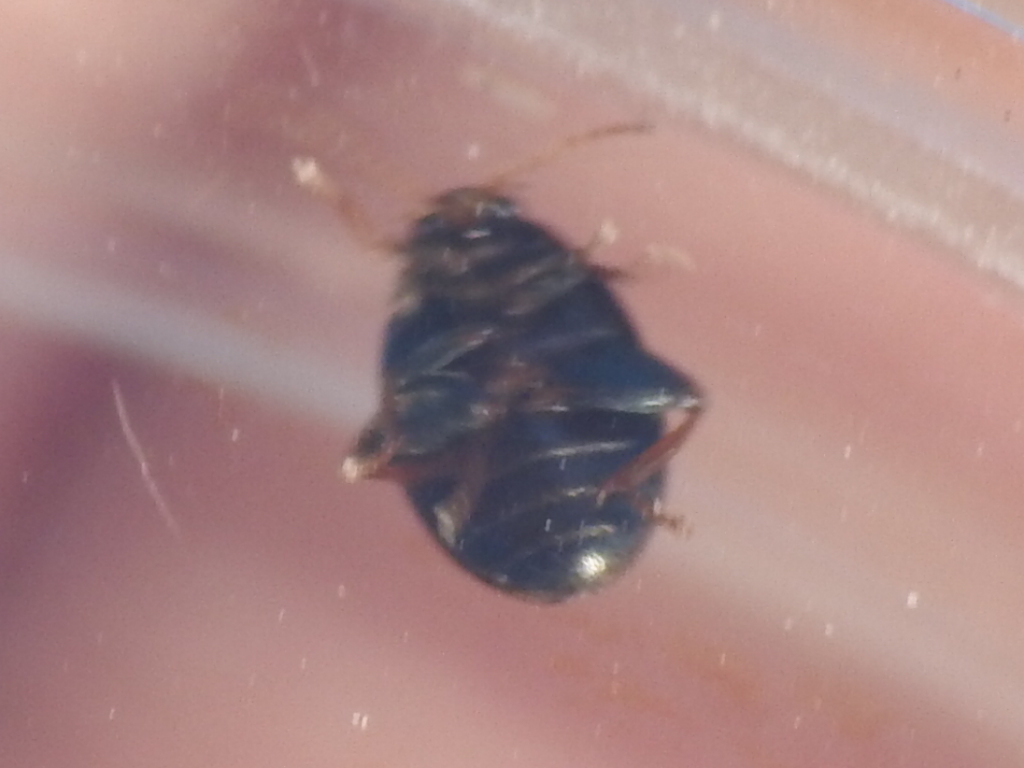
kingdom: Animalia
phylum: Arthropoda
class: Insecta
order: Coleoptera
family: Scirtidae
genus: Scirtes
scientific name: Scirtes tibialis
